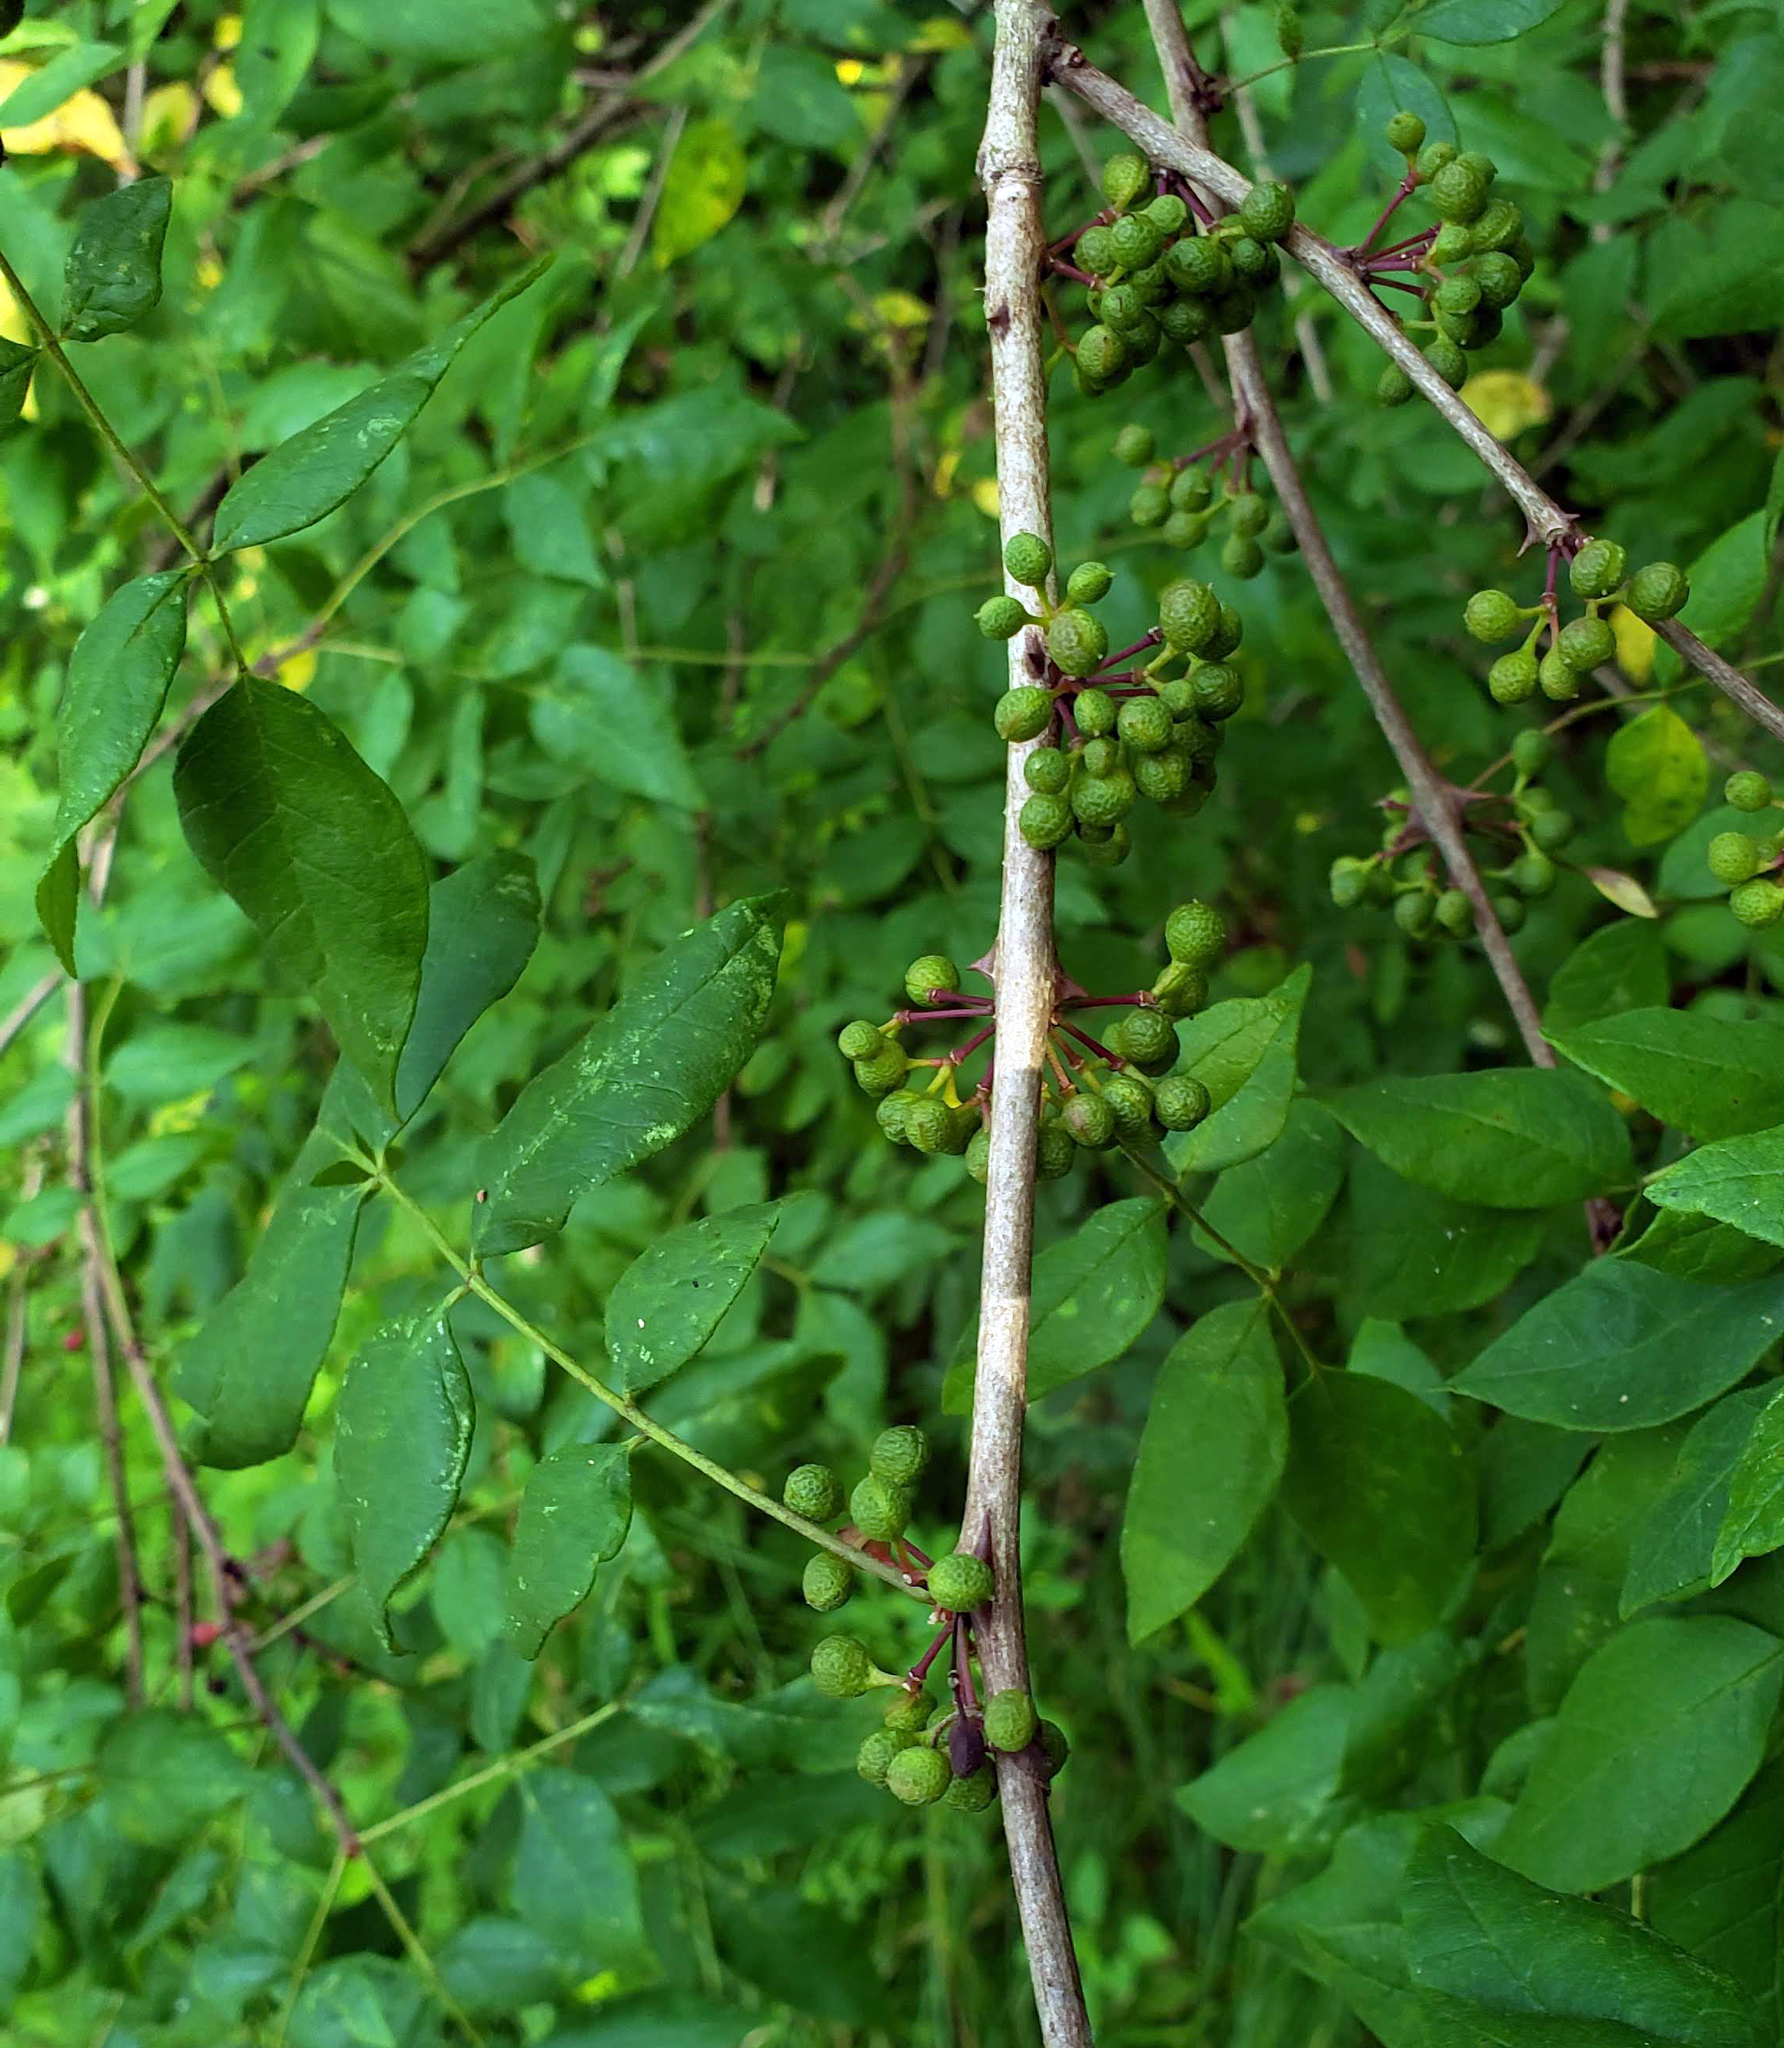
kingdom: Plantae
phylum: Tracheophyta
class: Magnoliopsida
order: Sapindales
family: Rutaceae
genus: Zanthoxylum
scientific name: Zanthoxylum americanum
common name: Northern prickly-ash
